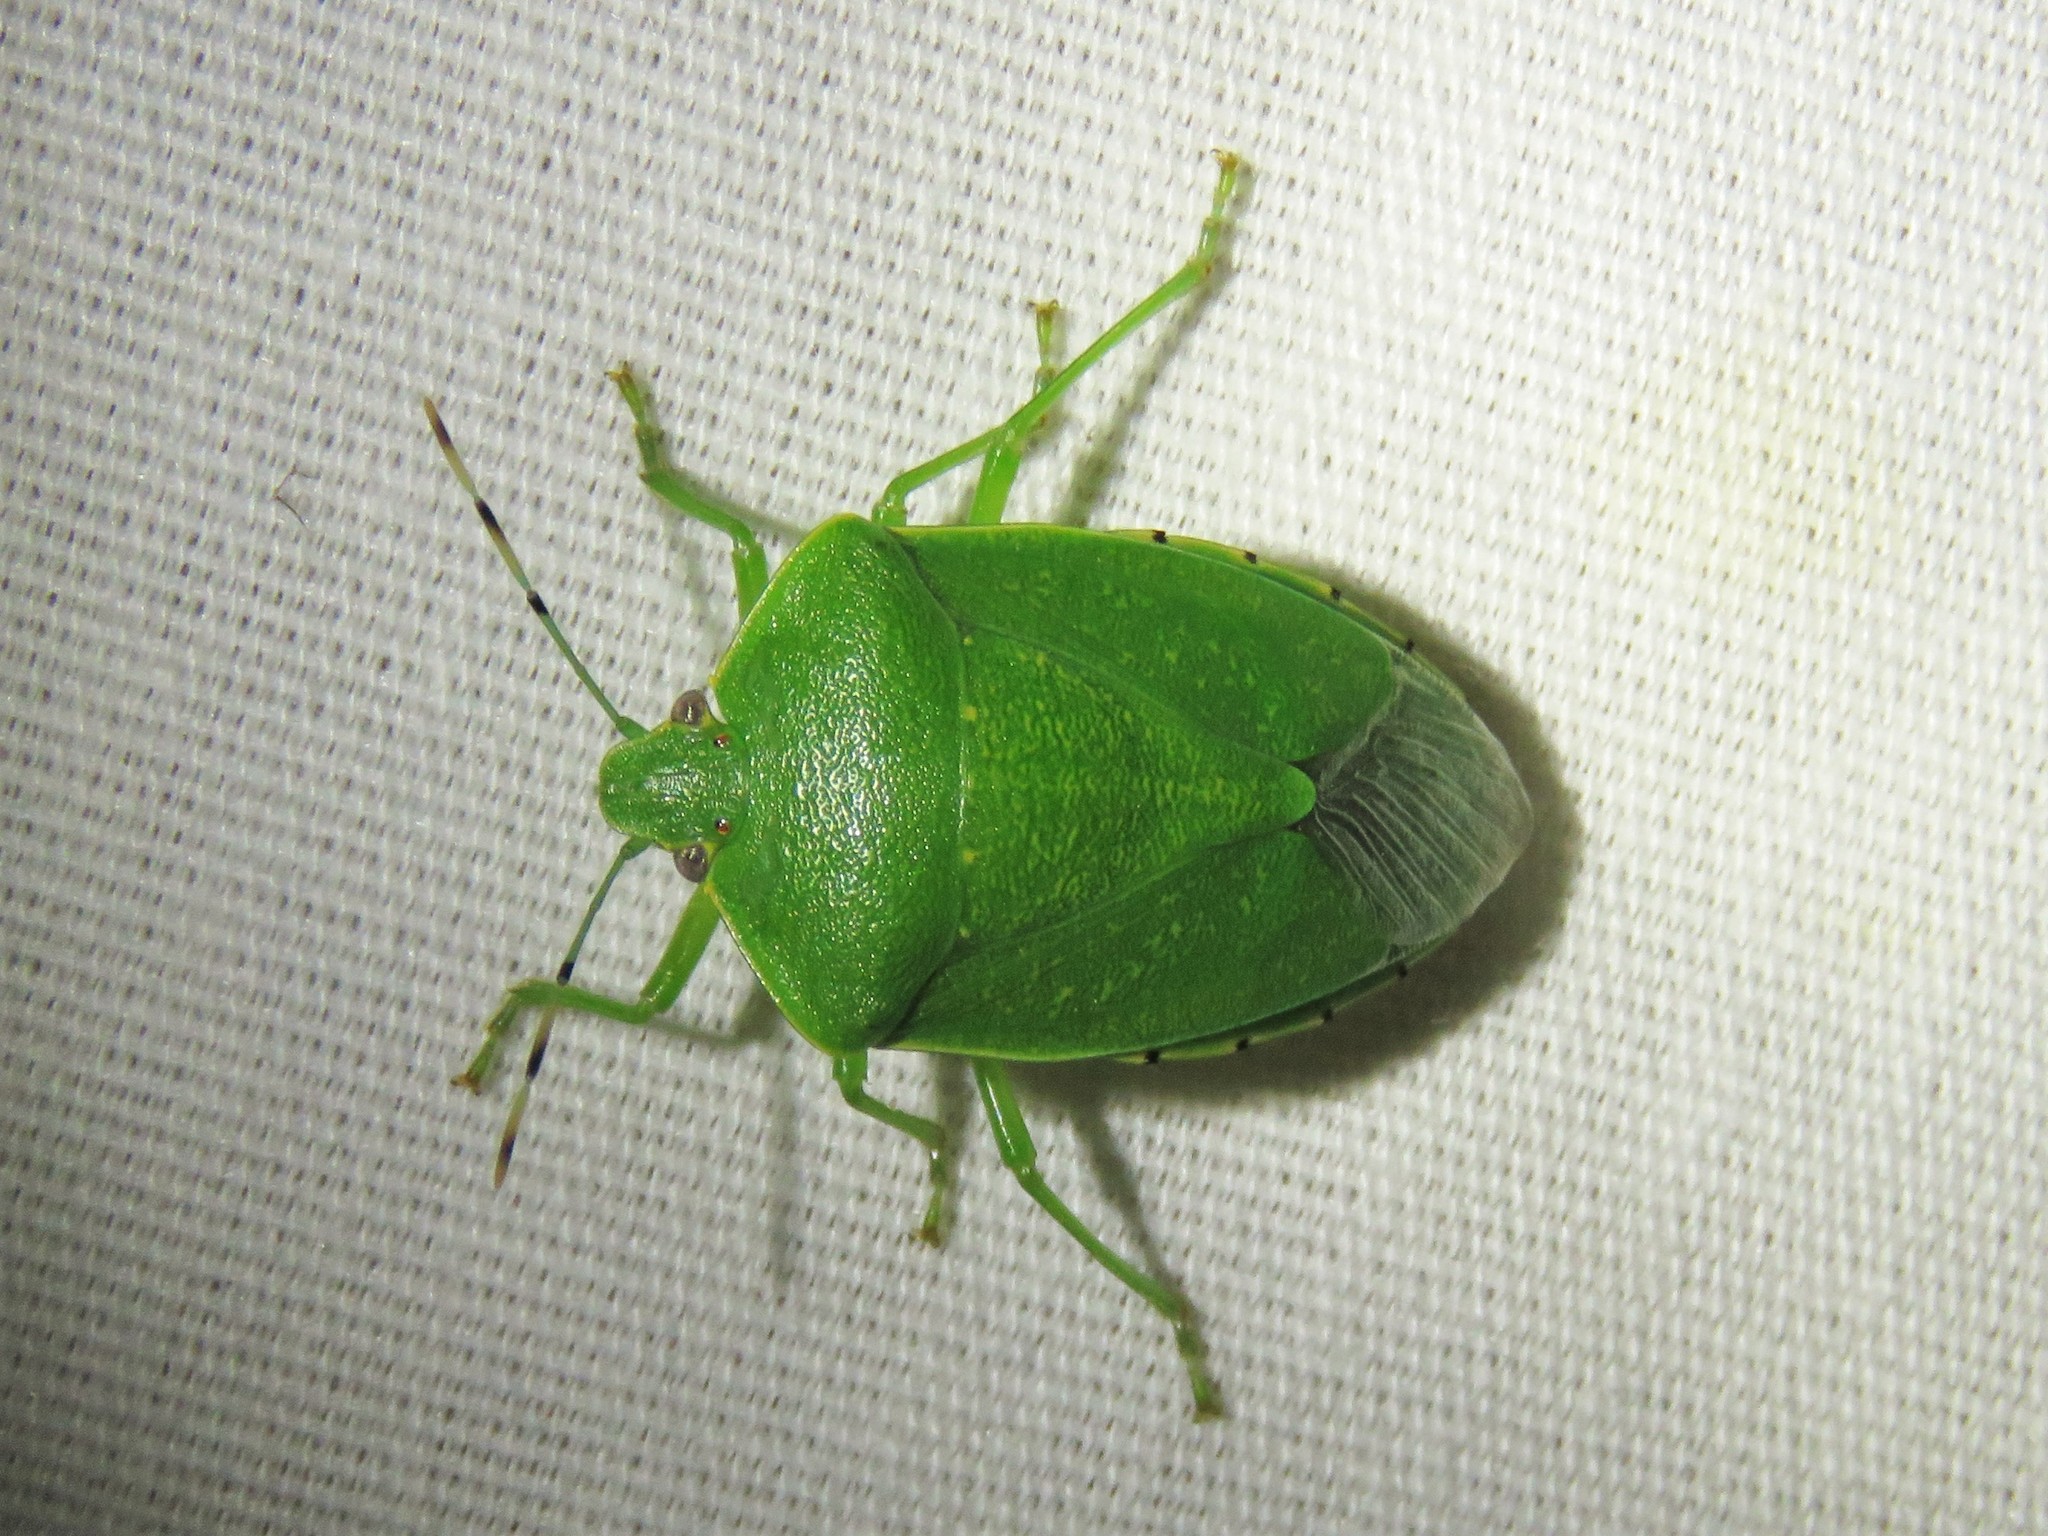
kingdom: Animalia
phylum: Arthropoda
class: Insecta
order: Hemiptera
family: Pentatomidae
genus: Chinavia
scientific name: Chinavia hilaris
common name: Green stink bug
